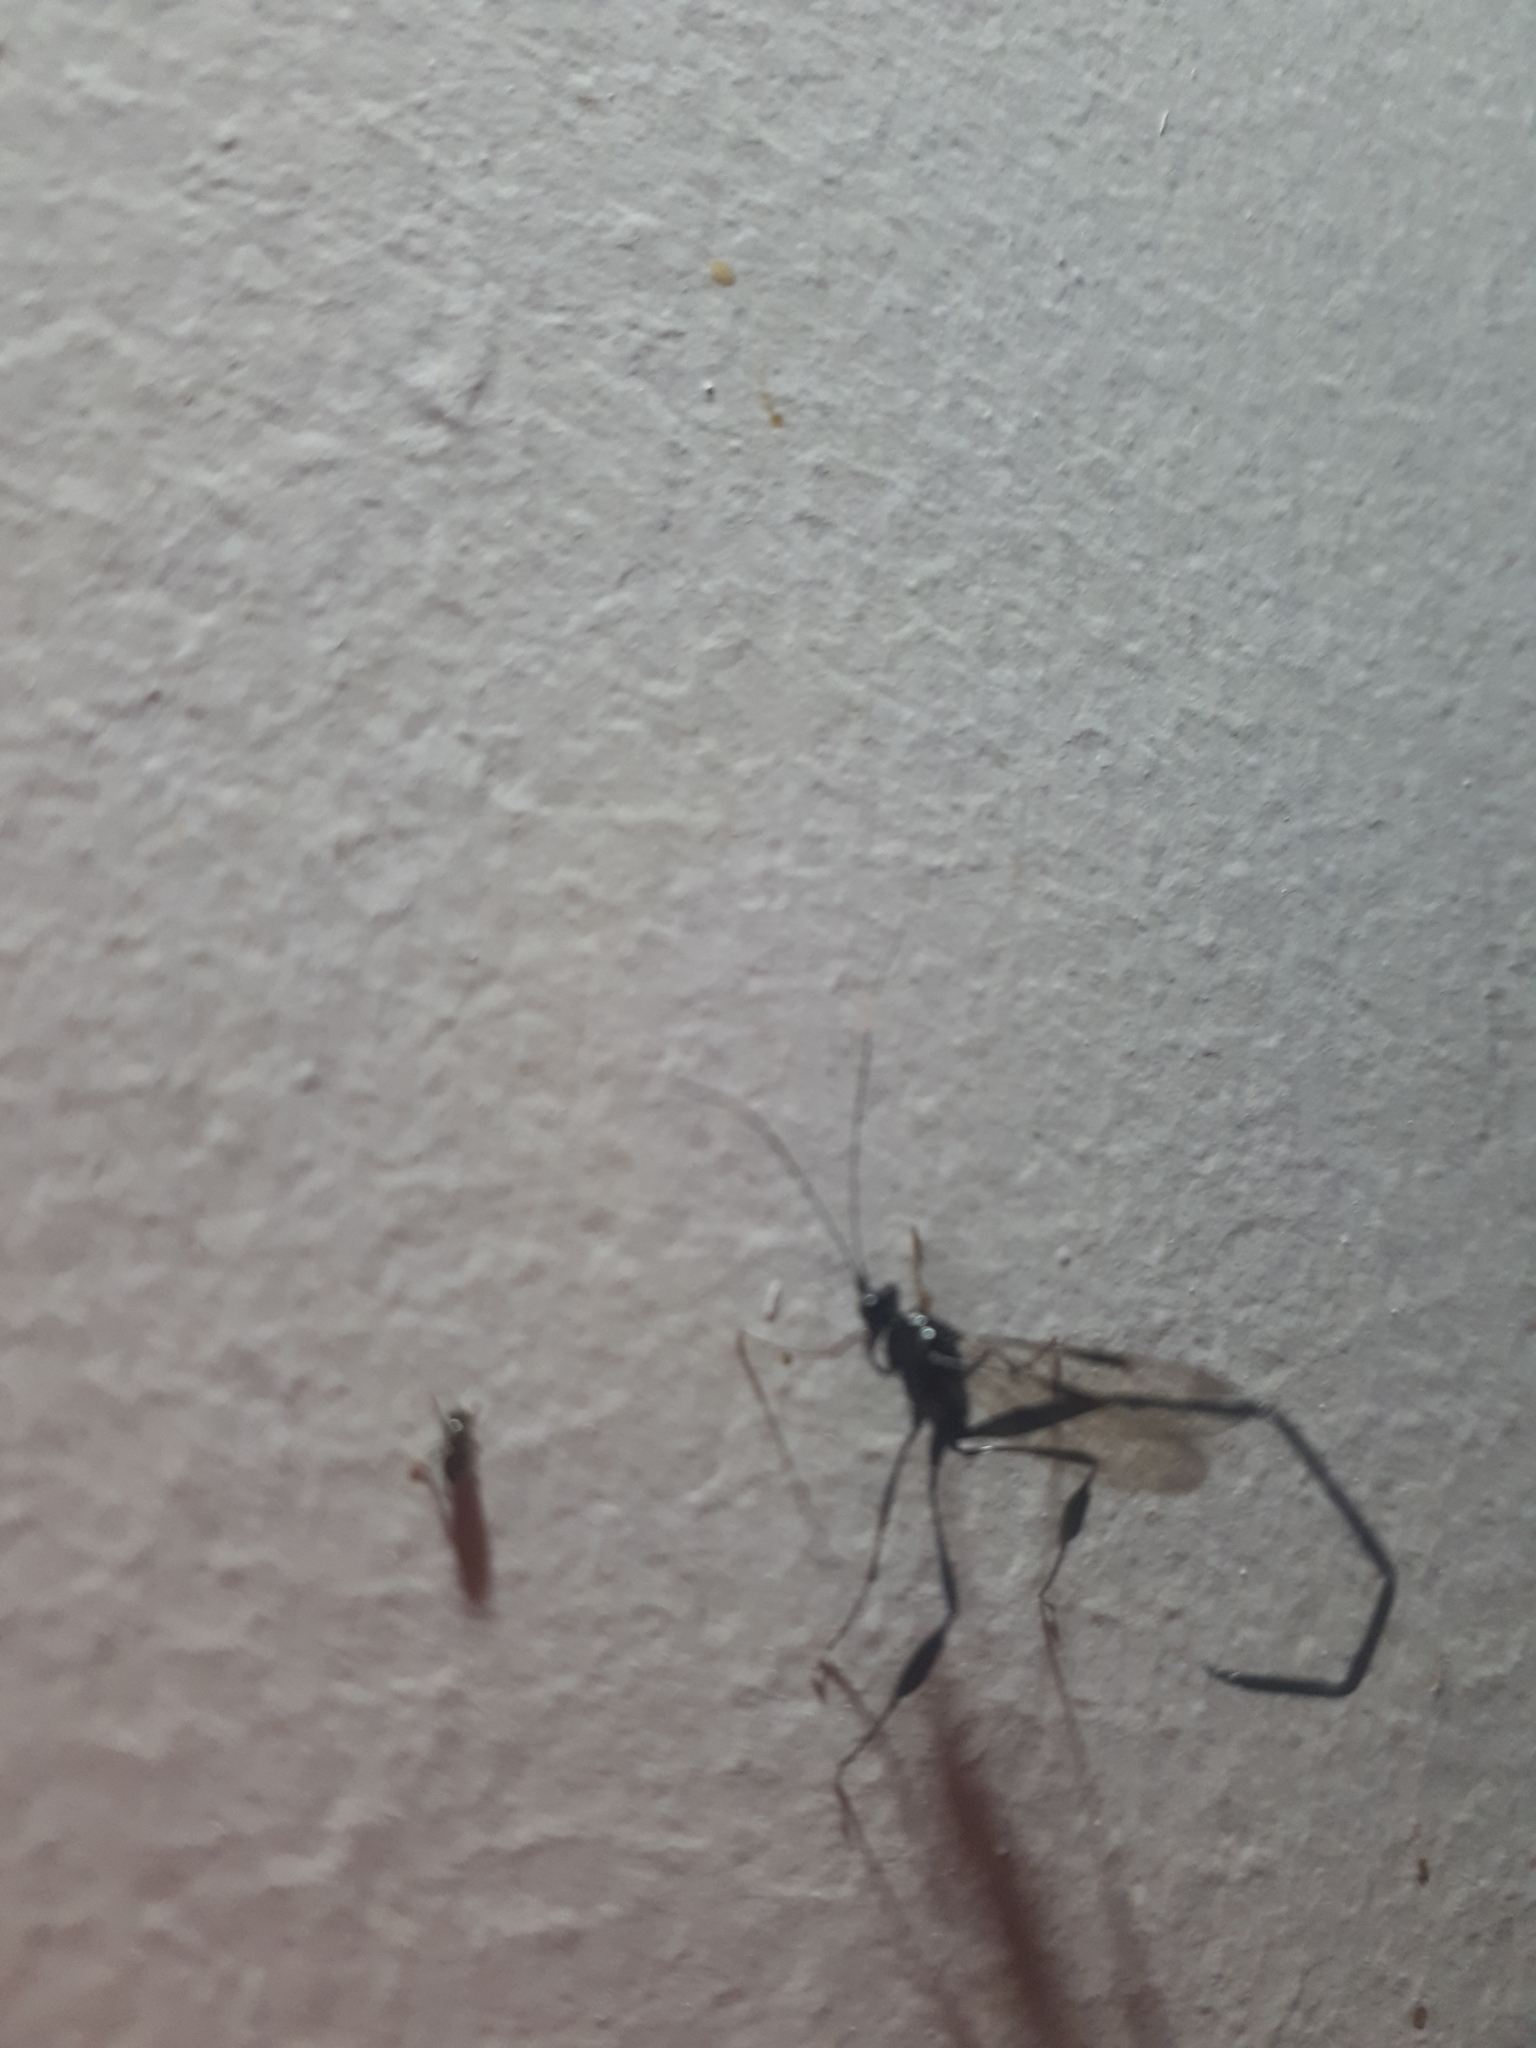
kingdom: Animalia
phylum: Arthropoda
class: Insecta
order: Hymenoptera
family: Pelecinidae
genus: Pelecinus
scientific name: Pelecinus polyturator
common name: American pelecinid wasp
